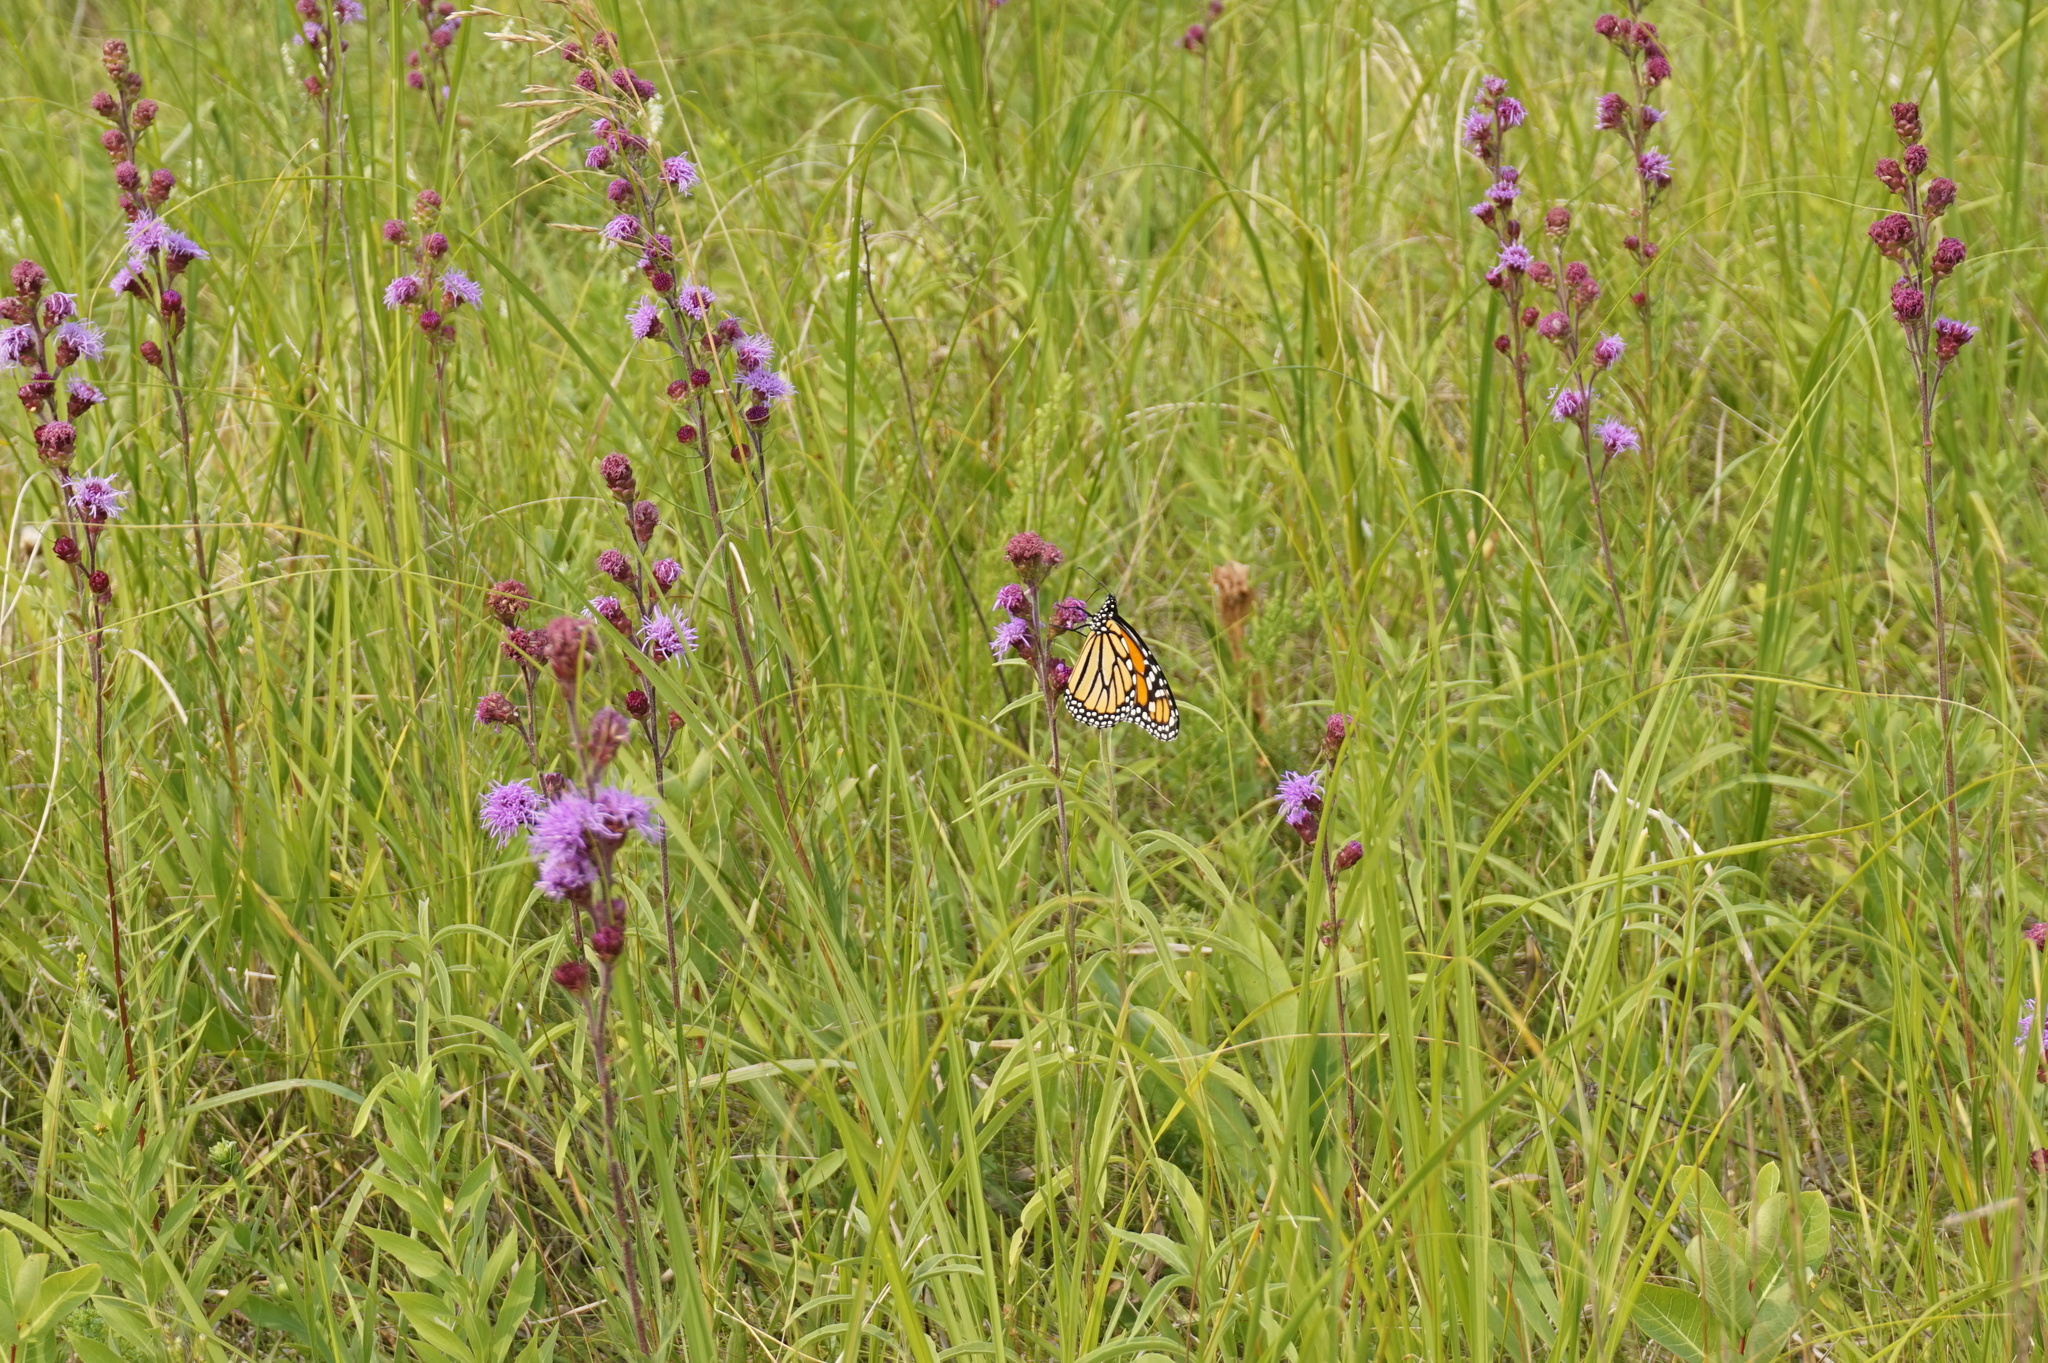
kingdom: Animalia
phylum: Arthropoda
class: Insecta
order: Lepidoptera
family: Nymphalidae
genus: Danaus
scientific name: Danaus plexippus
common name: Monarch
